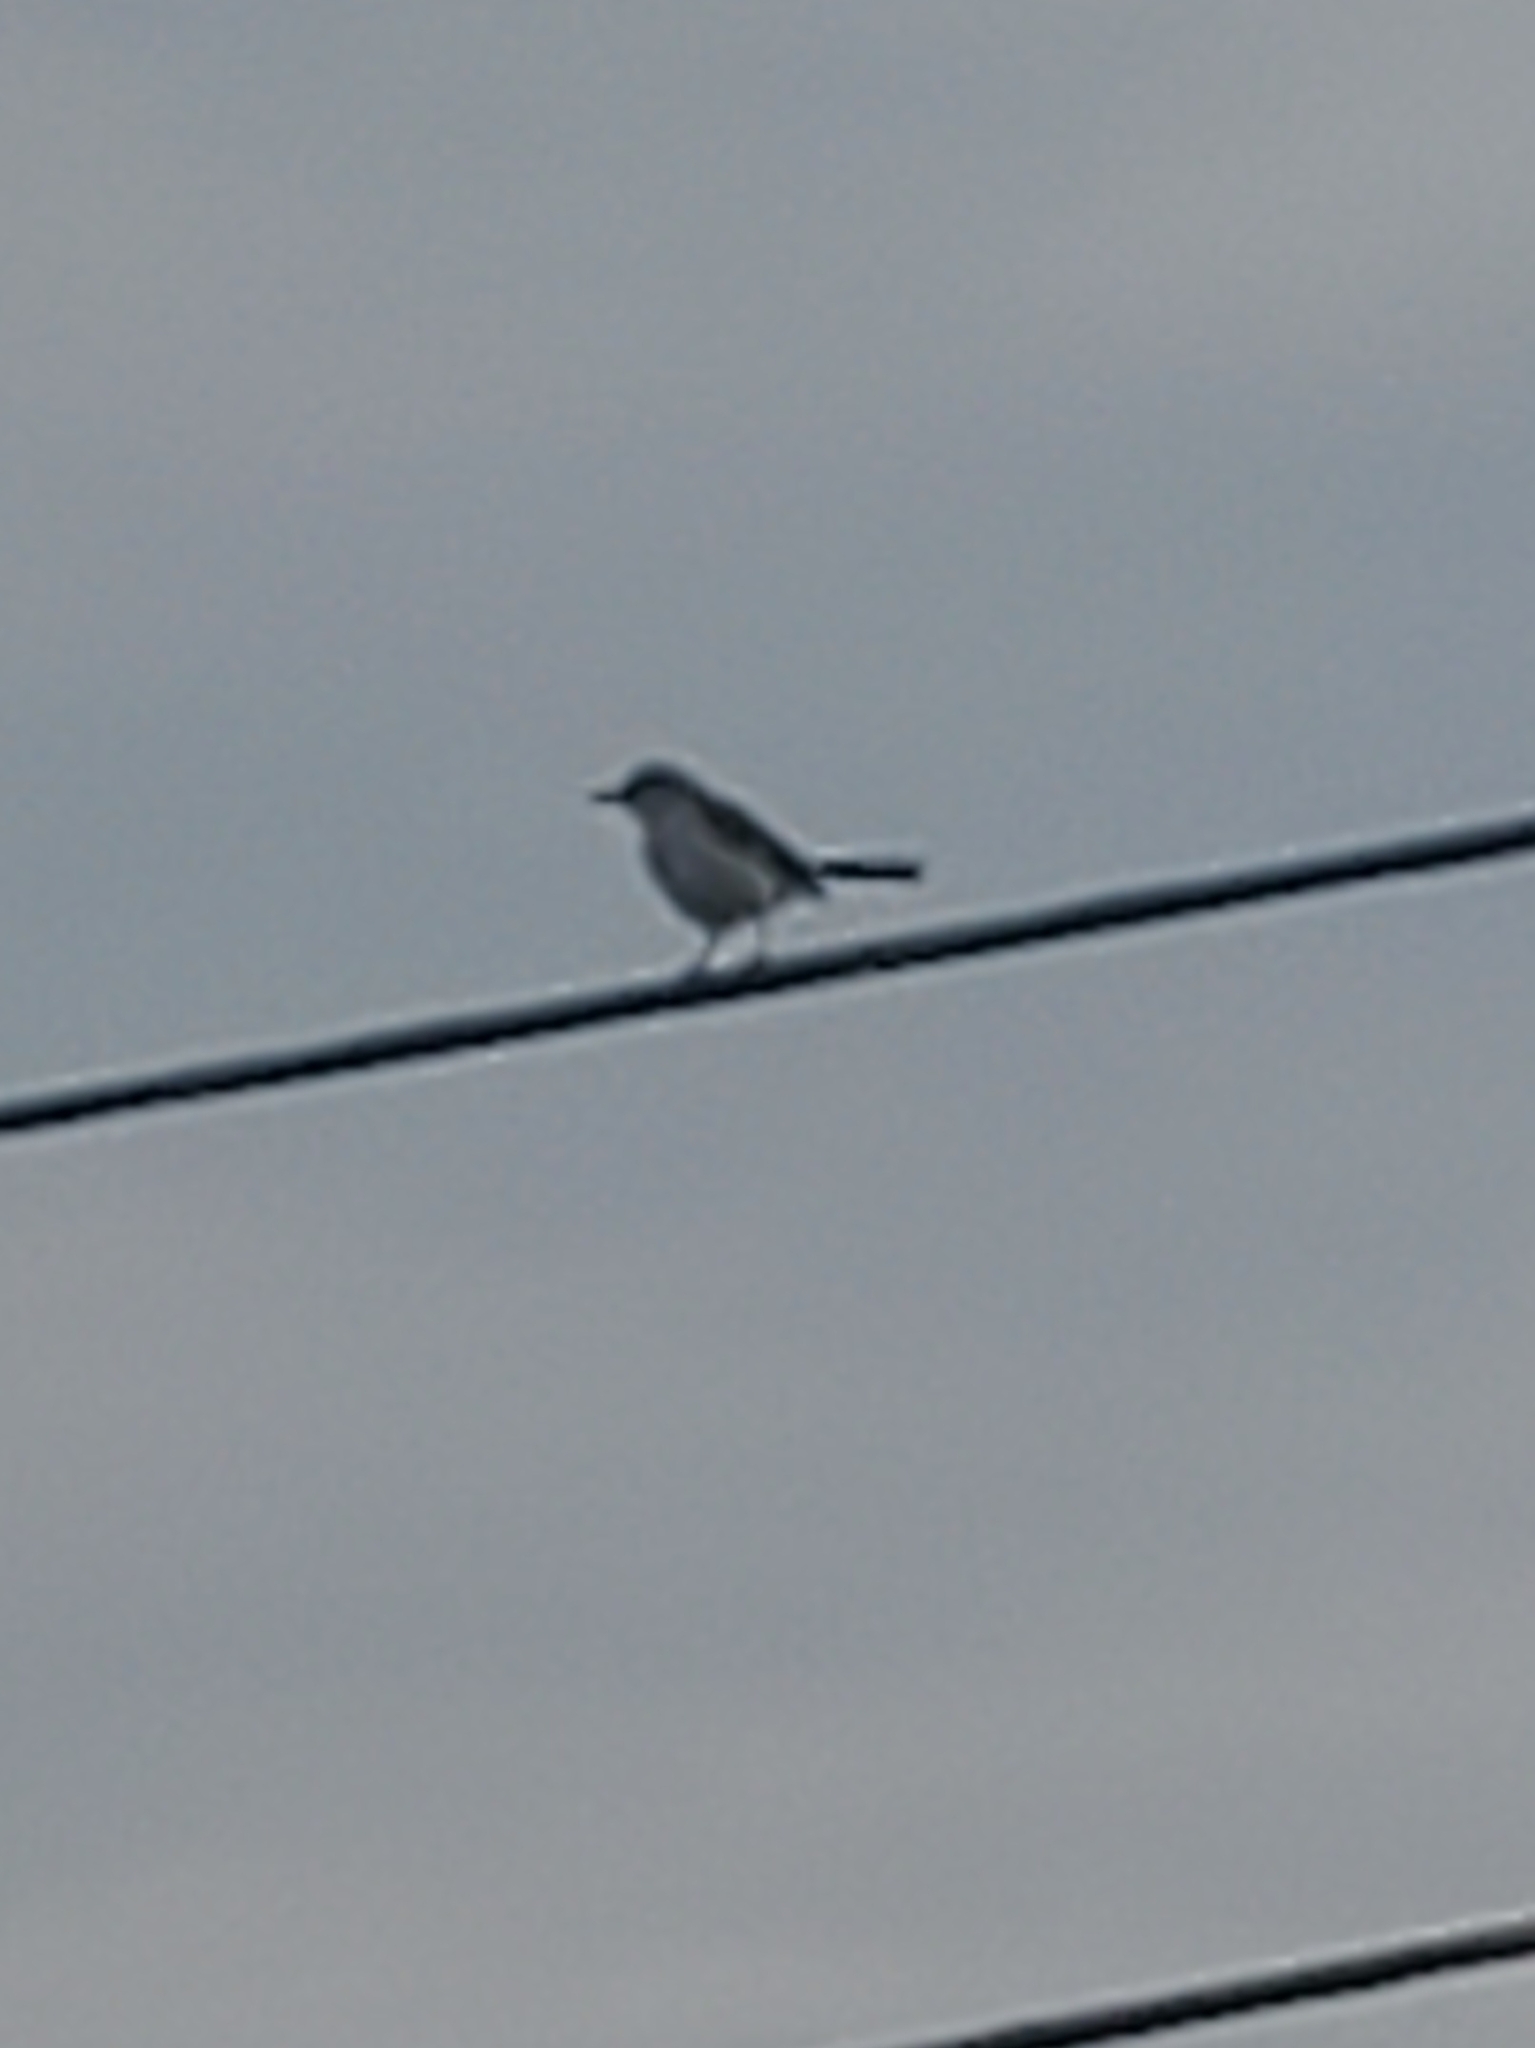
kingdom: Animalia
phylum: Chordata
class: Aves
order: Passeriformes
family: Mimidae
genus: Mimus
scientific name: Mimus polyglottos
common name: Northern mockingbird
